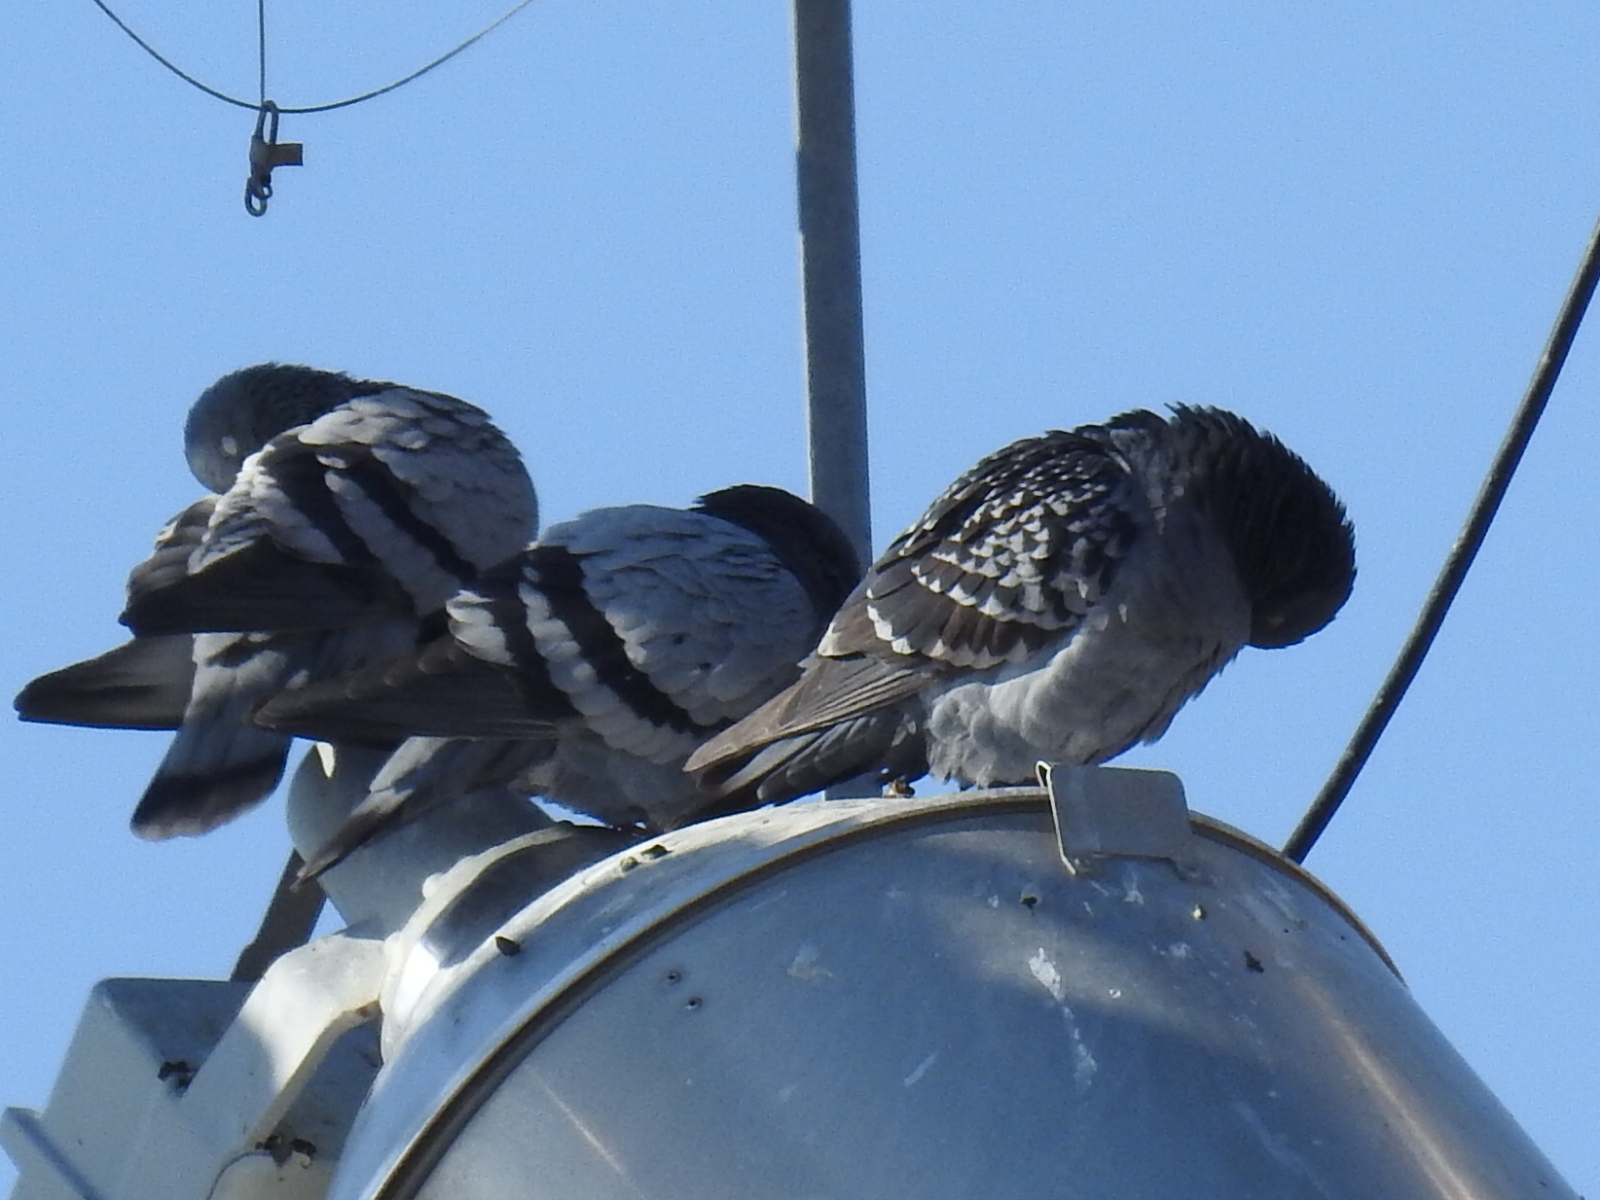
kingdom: Animalia
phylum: Chordata
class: Aves
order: Columbiformes
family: Columbidae
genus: Columba
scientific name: Columba livia
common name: Rock pigeon
